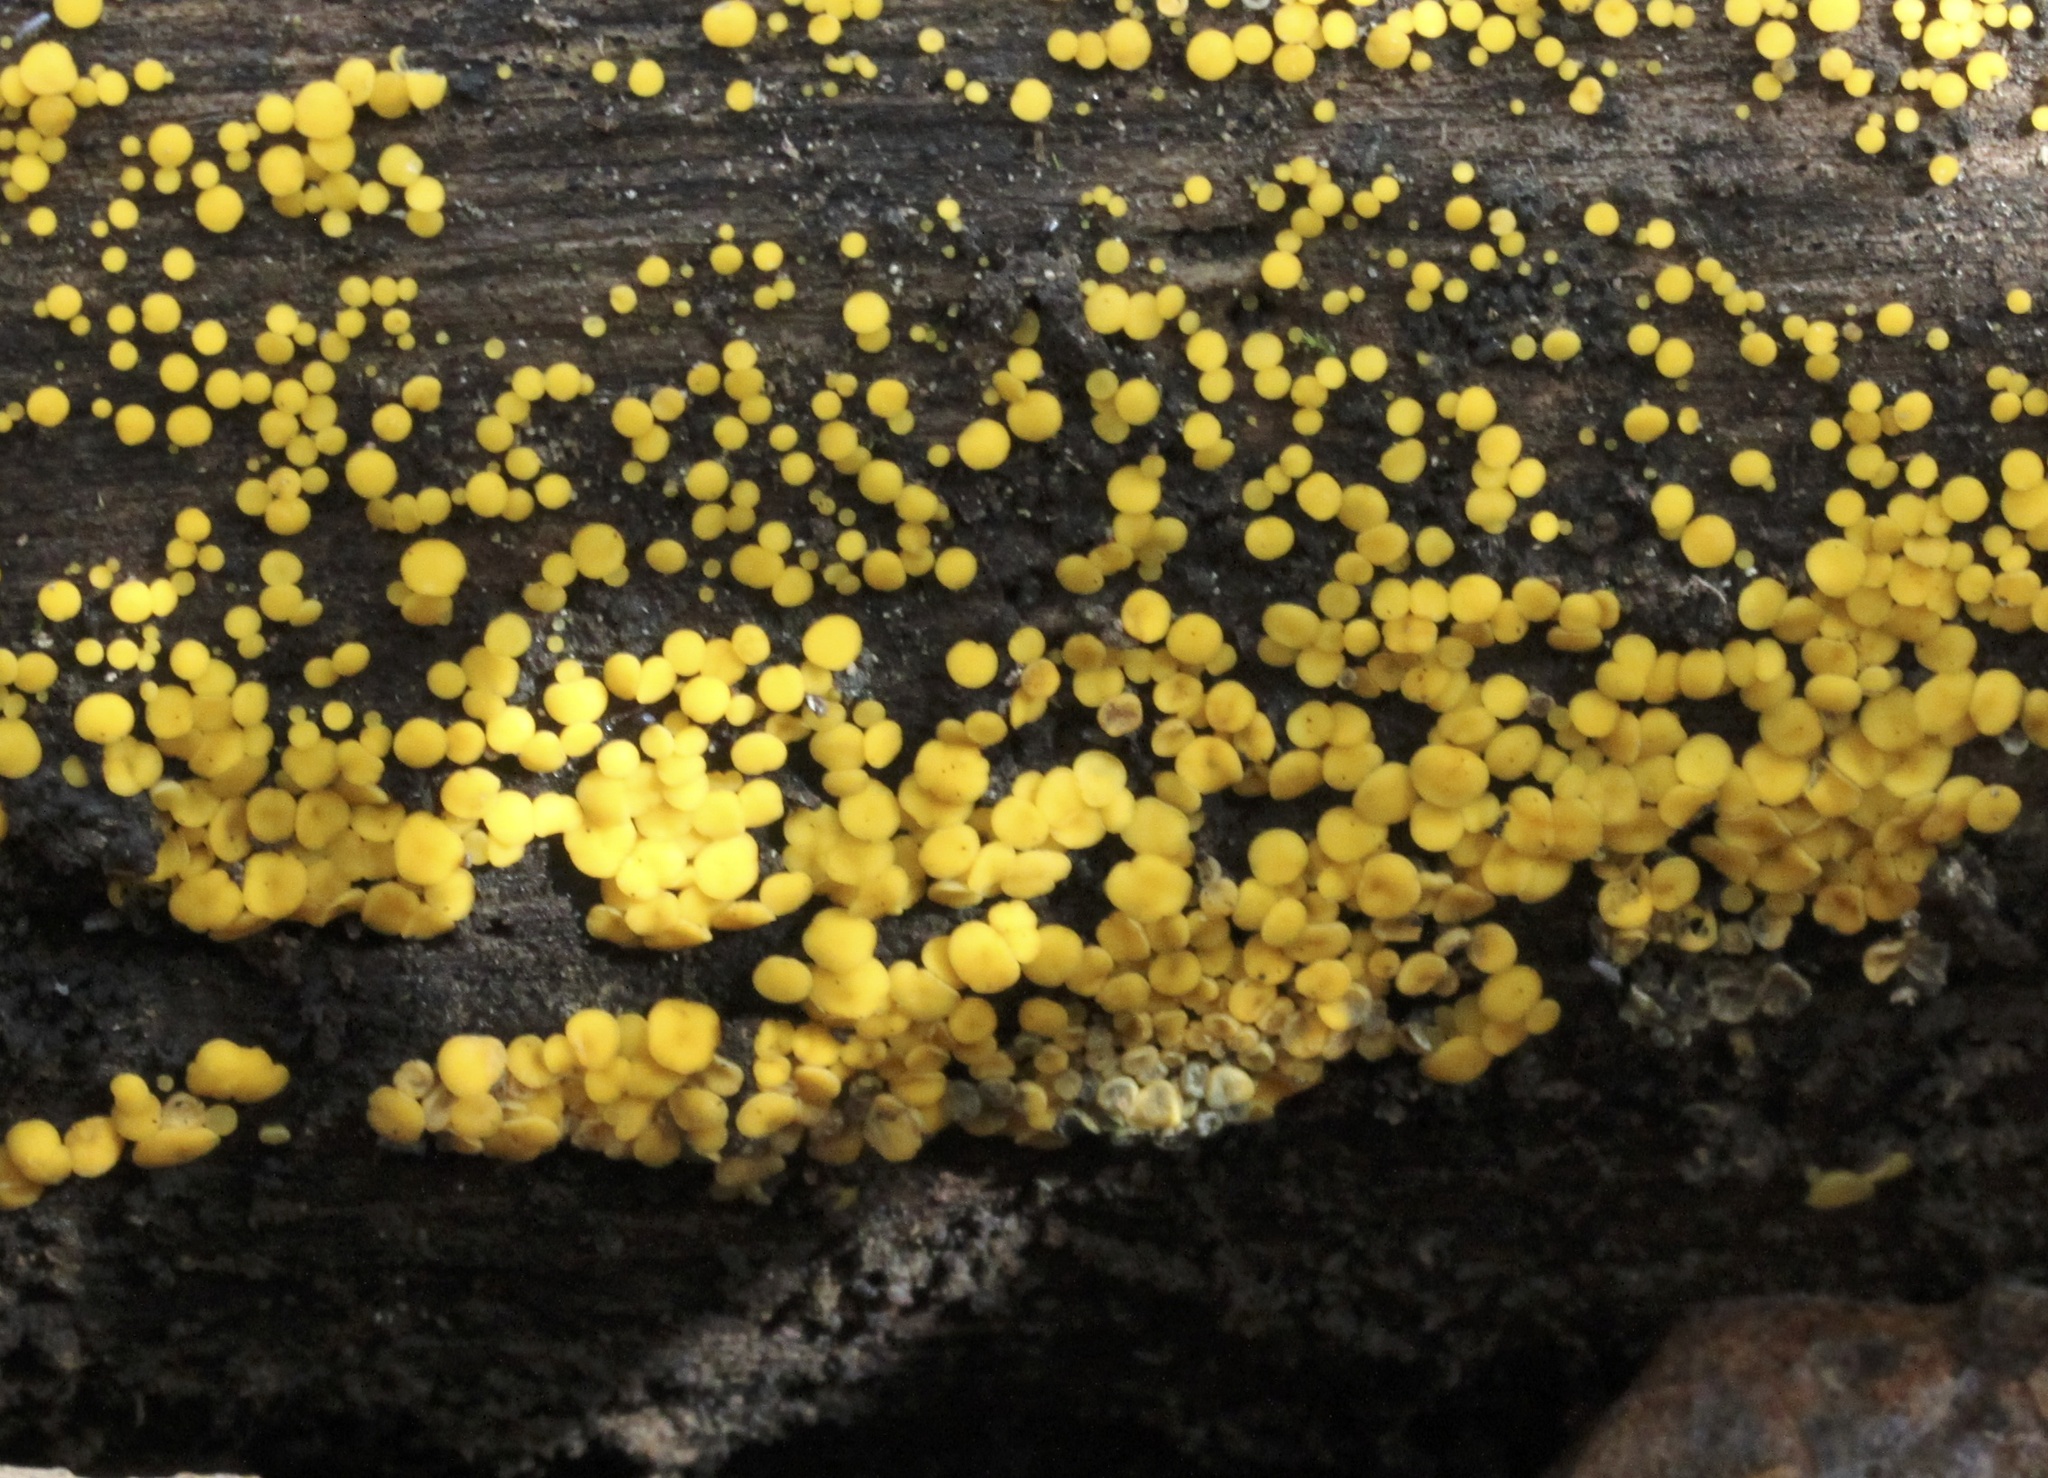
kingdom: Fungi
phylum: Ascomycota
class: Leotiomycetes
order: Helotiales
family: Pezizellaceae
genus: Calycina
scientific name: Calycina citrina
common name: Yellow fairy cups
